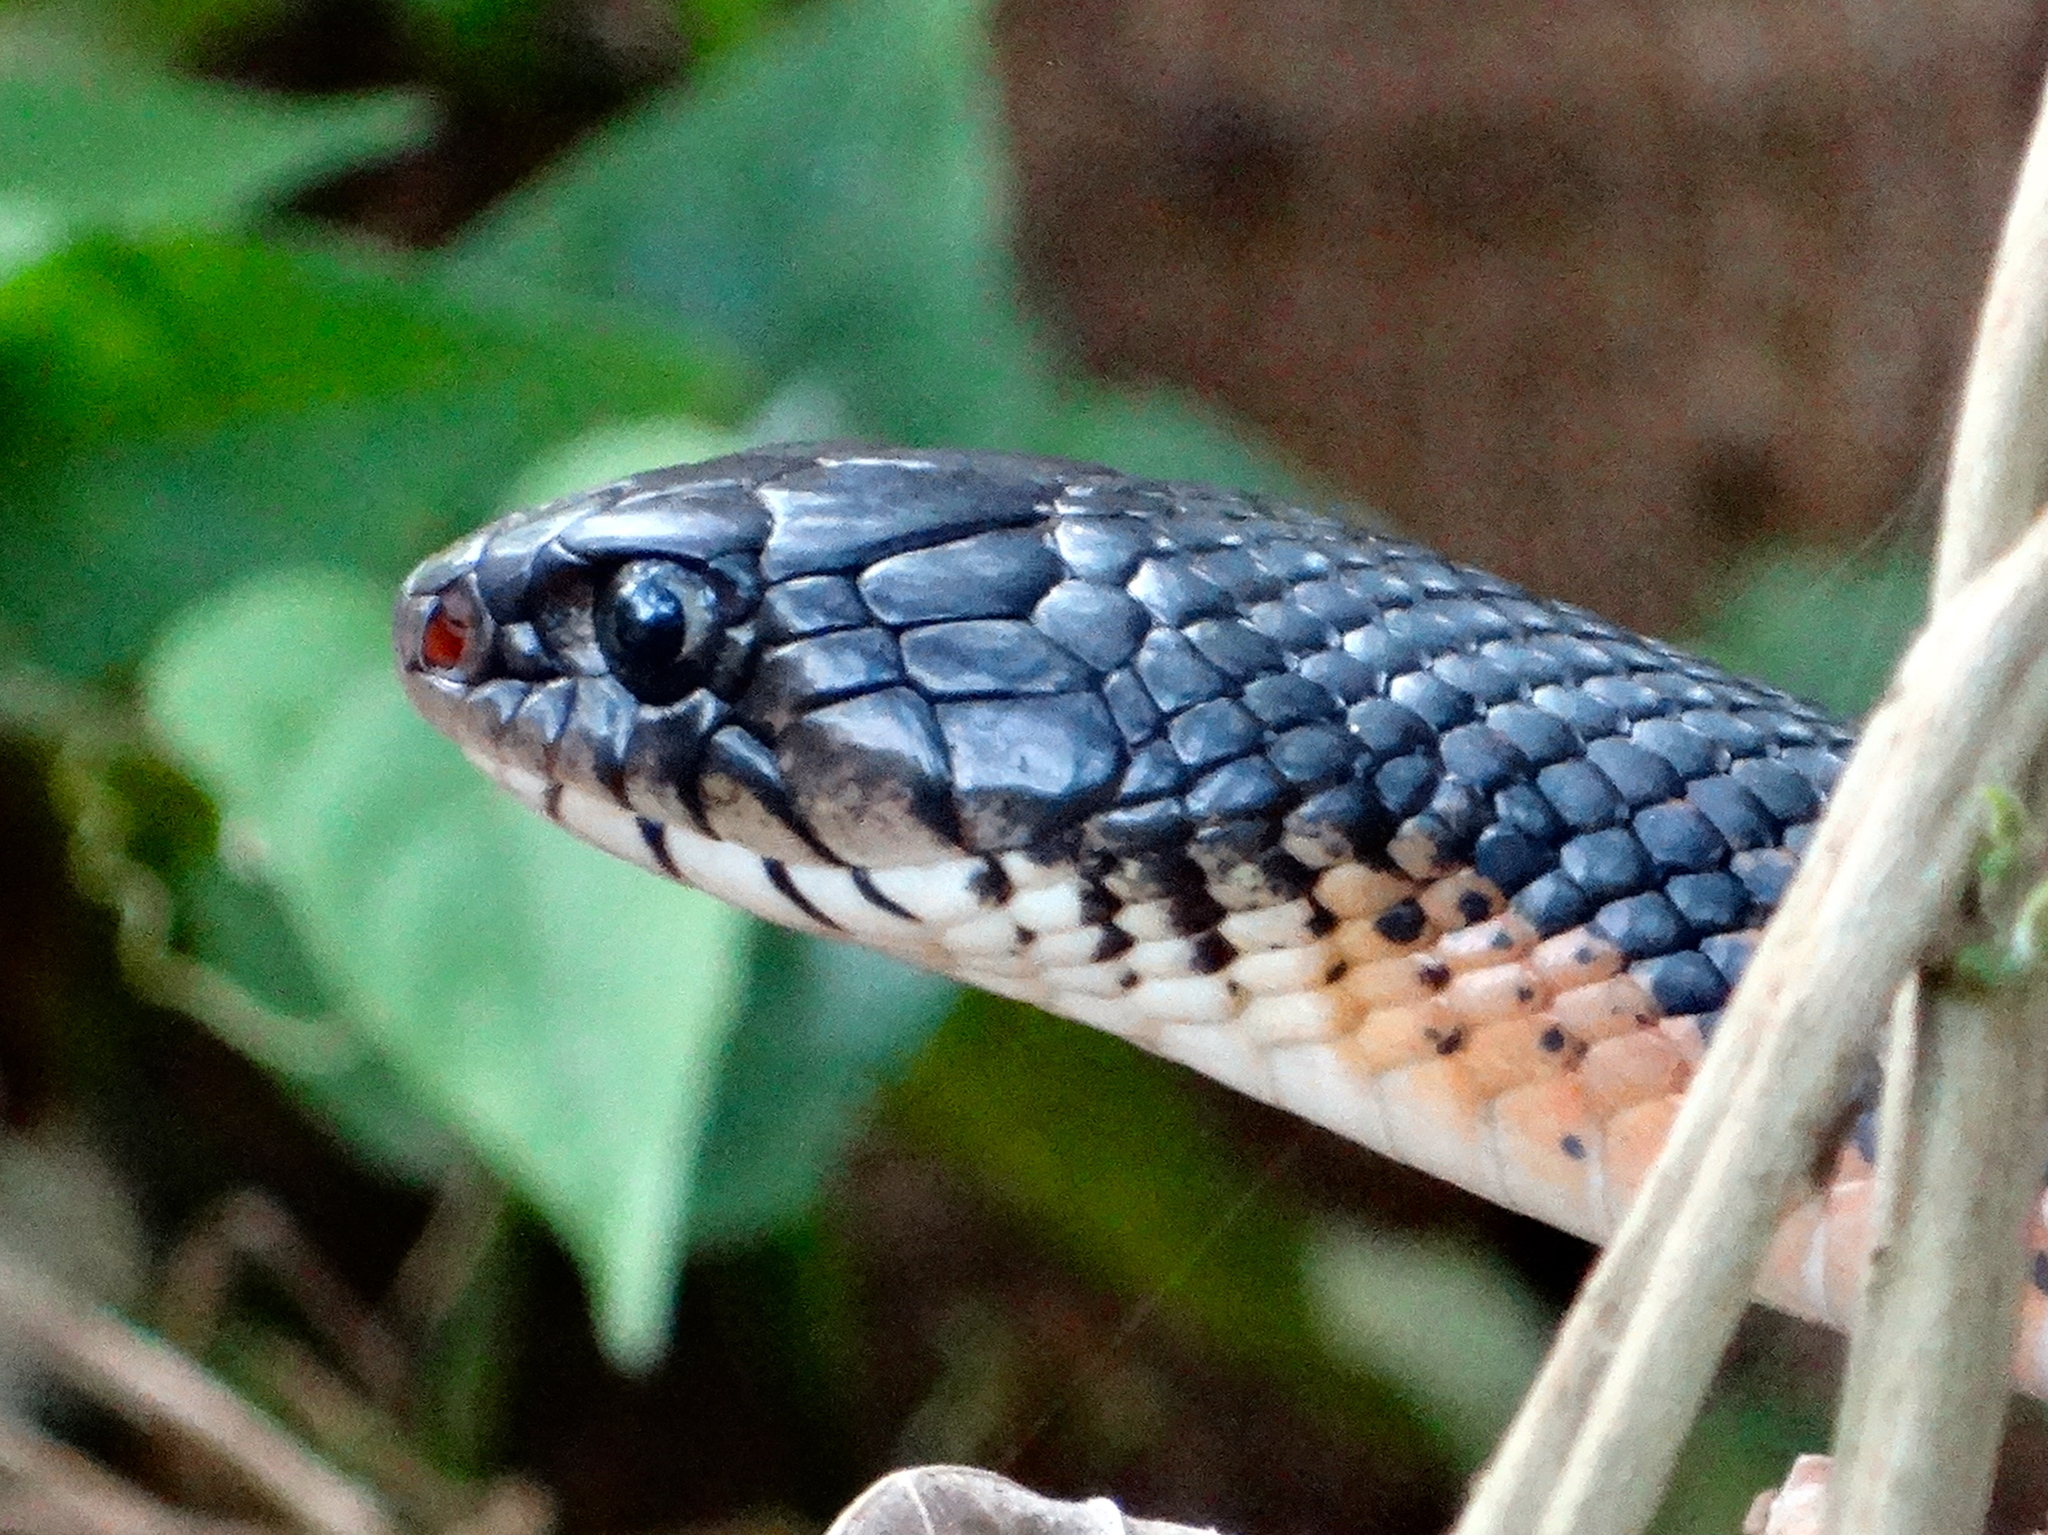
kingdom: Animalia
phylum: Chordata
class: Squamata
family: Colubridae
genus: Drymarchon
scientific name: Drymarchon melanurus
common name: Central american indigo snake
